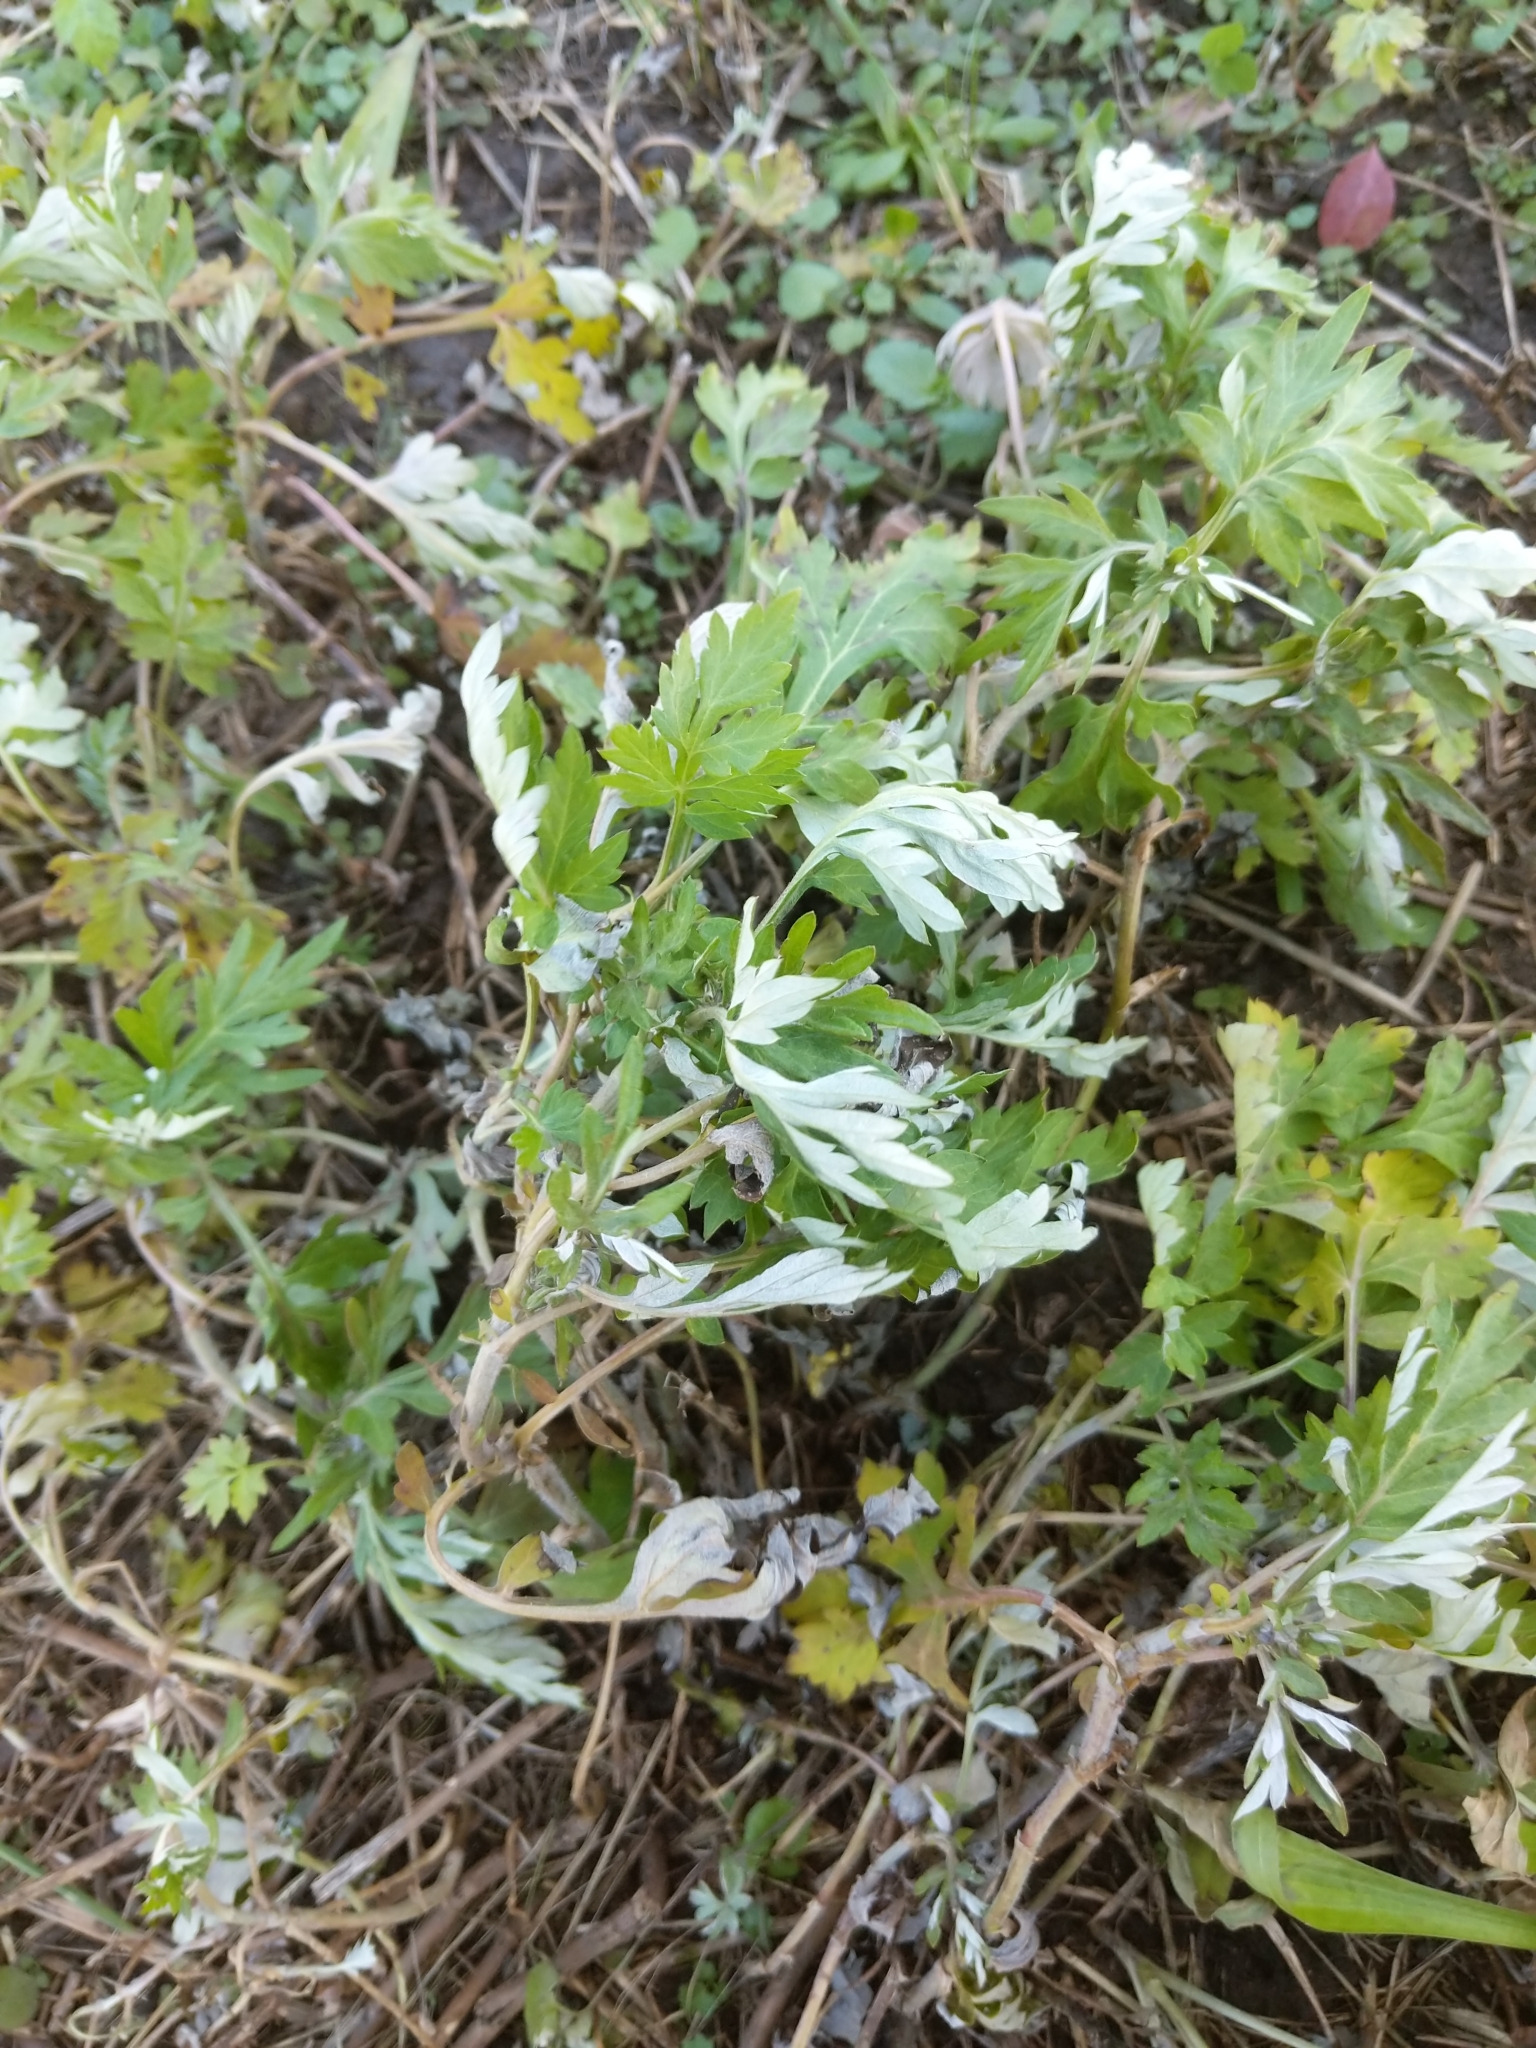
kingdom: Plantae
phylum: Tracheophyta
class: Magnoliopsida
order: Asterales
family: Asteraceae
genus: Artemisia
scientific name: Artemisia vulgaris
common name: Mugwort
